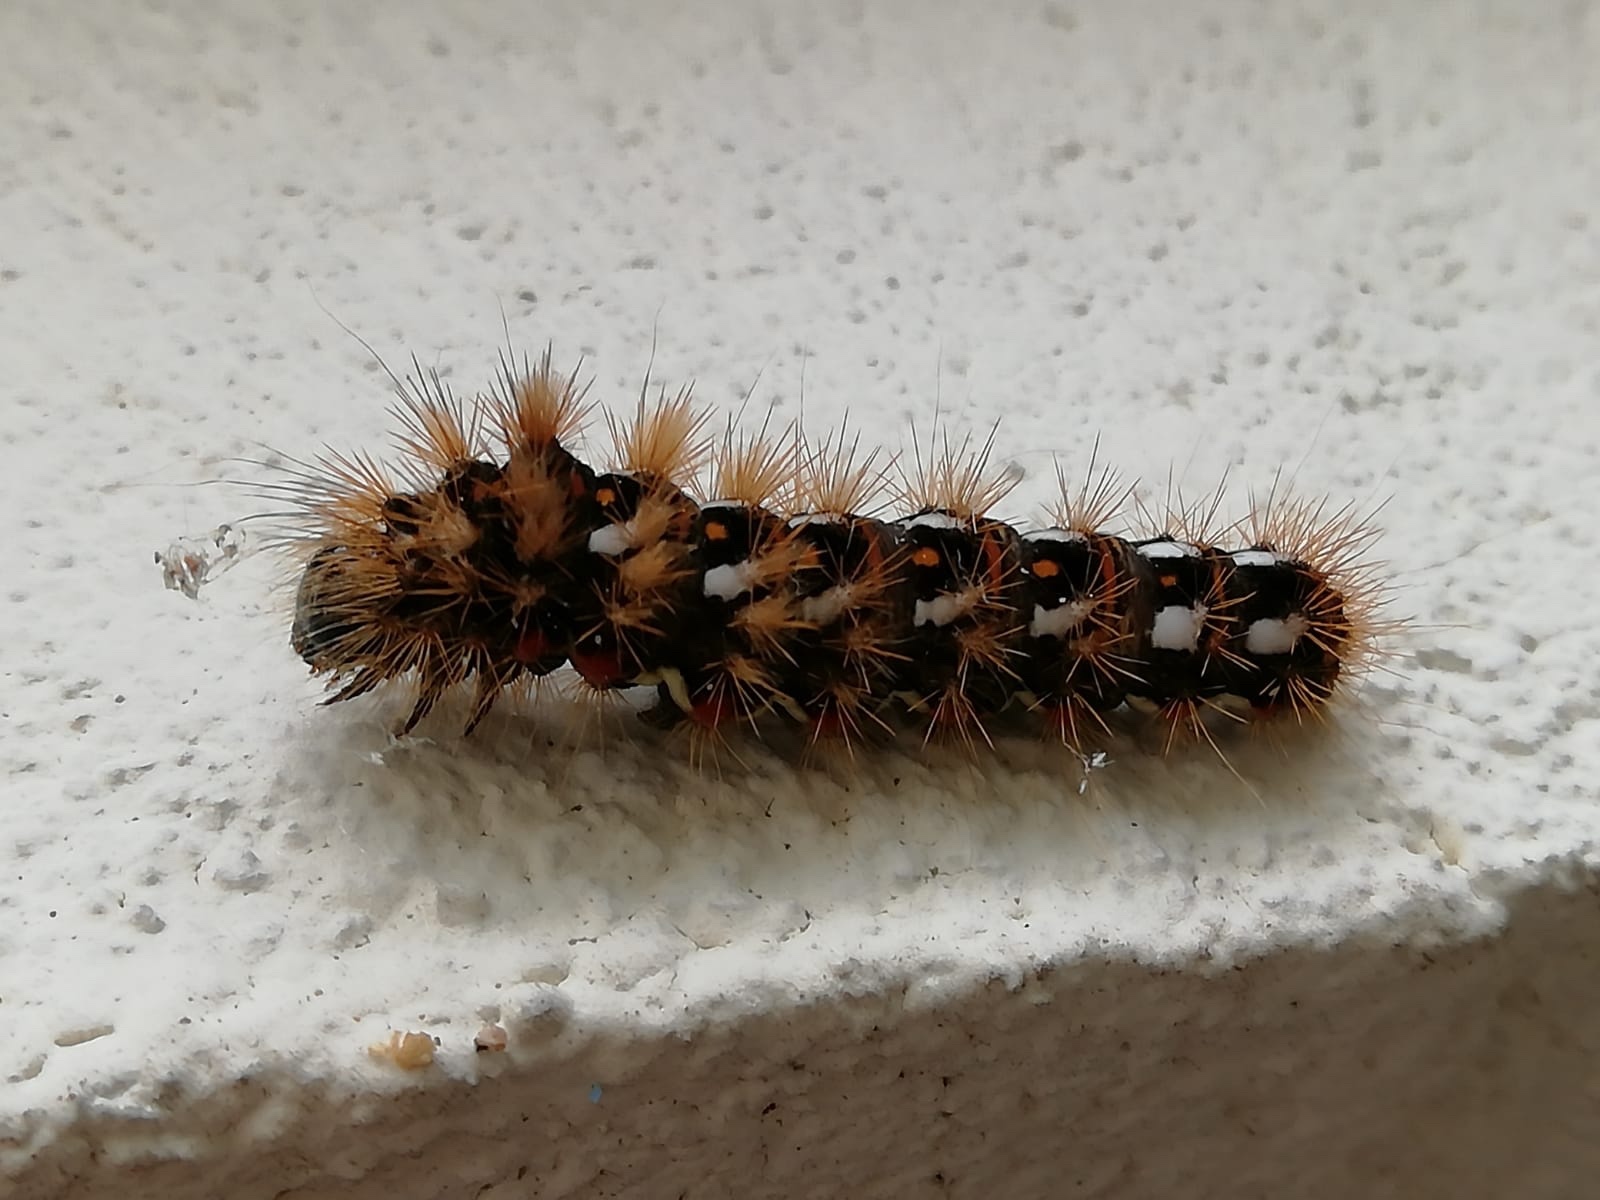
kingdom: Animalia
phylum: Arthropoda
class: Insecta
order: Lepidoptera
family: Noctuidae
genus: Acronicta
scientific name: Acronicta rumicis
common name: Knot grass
